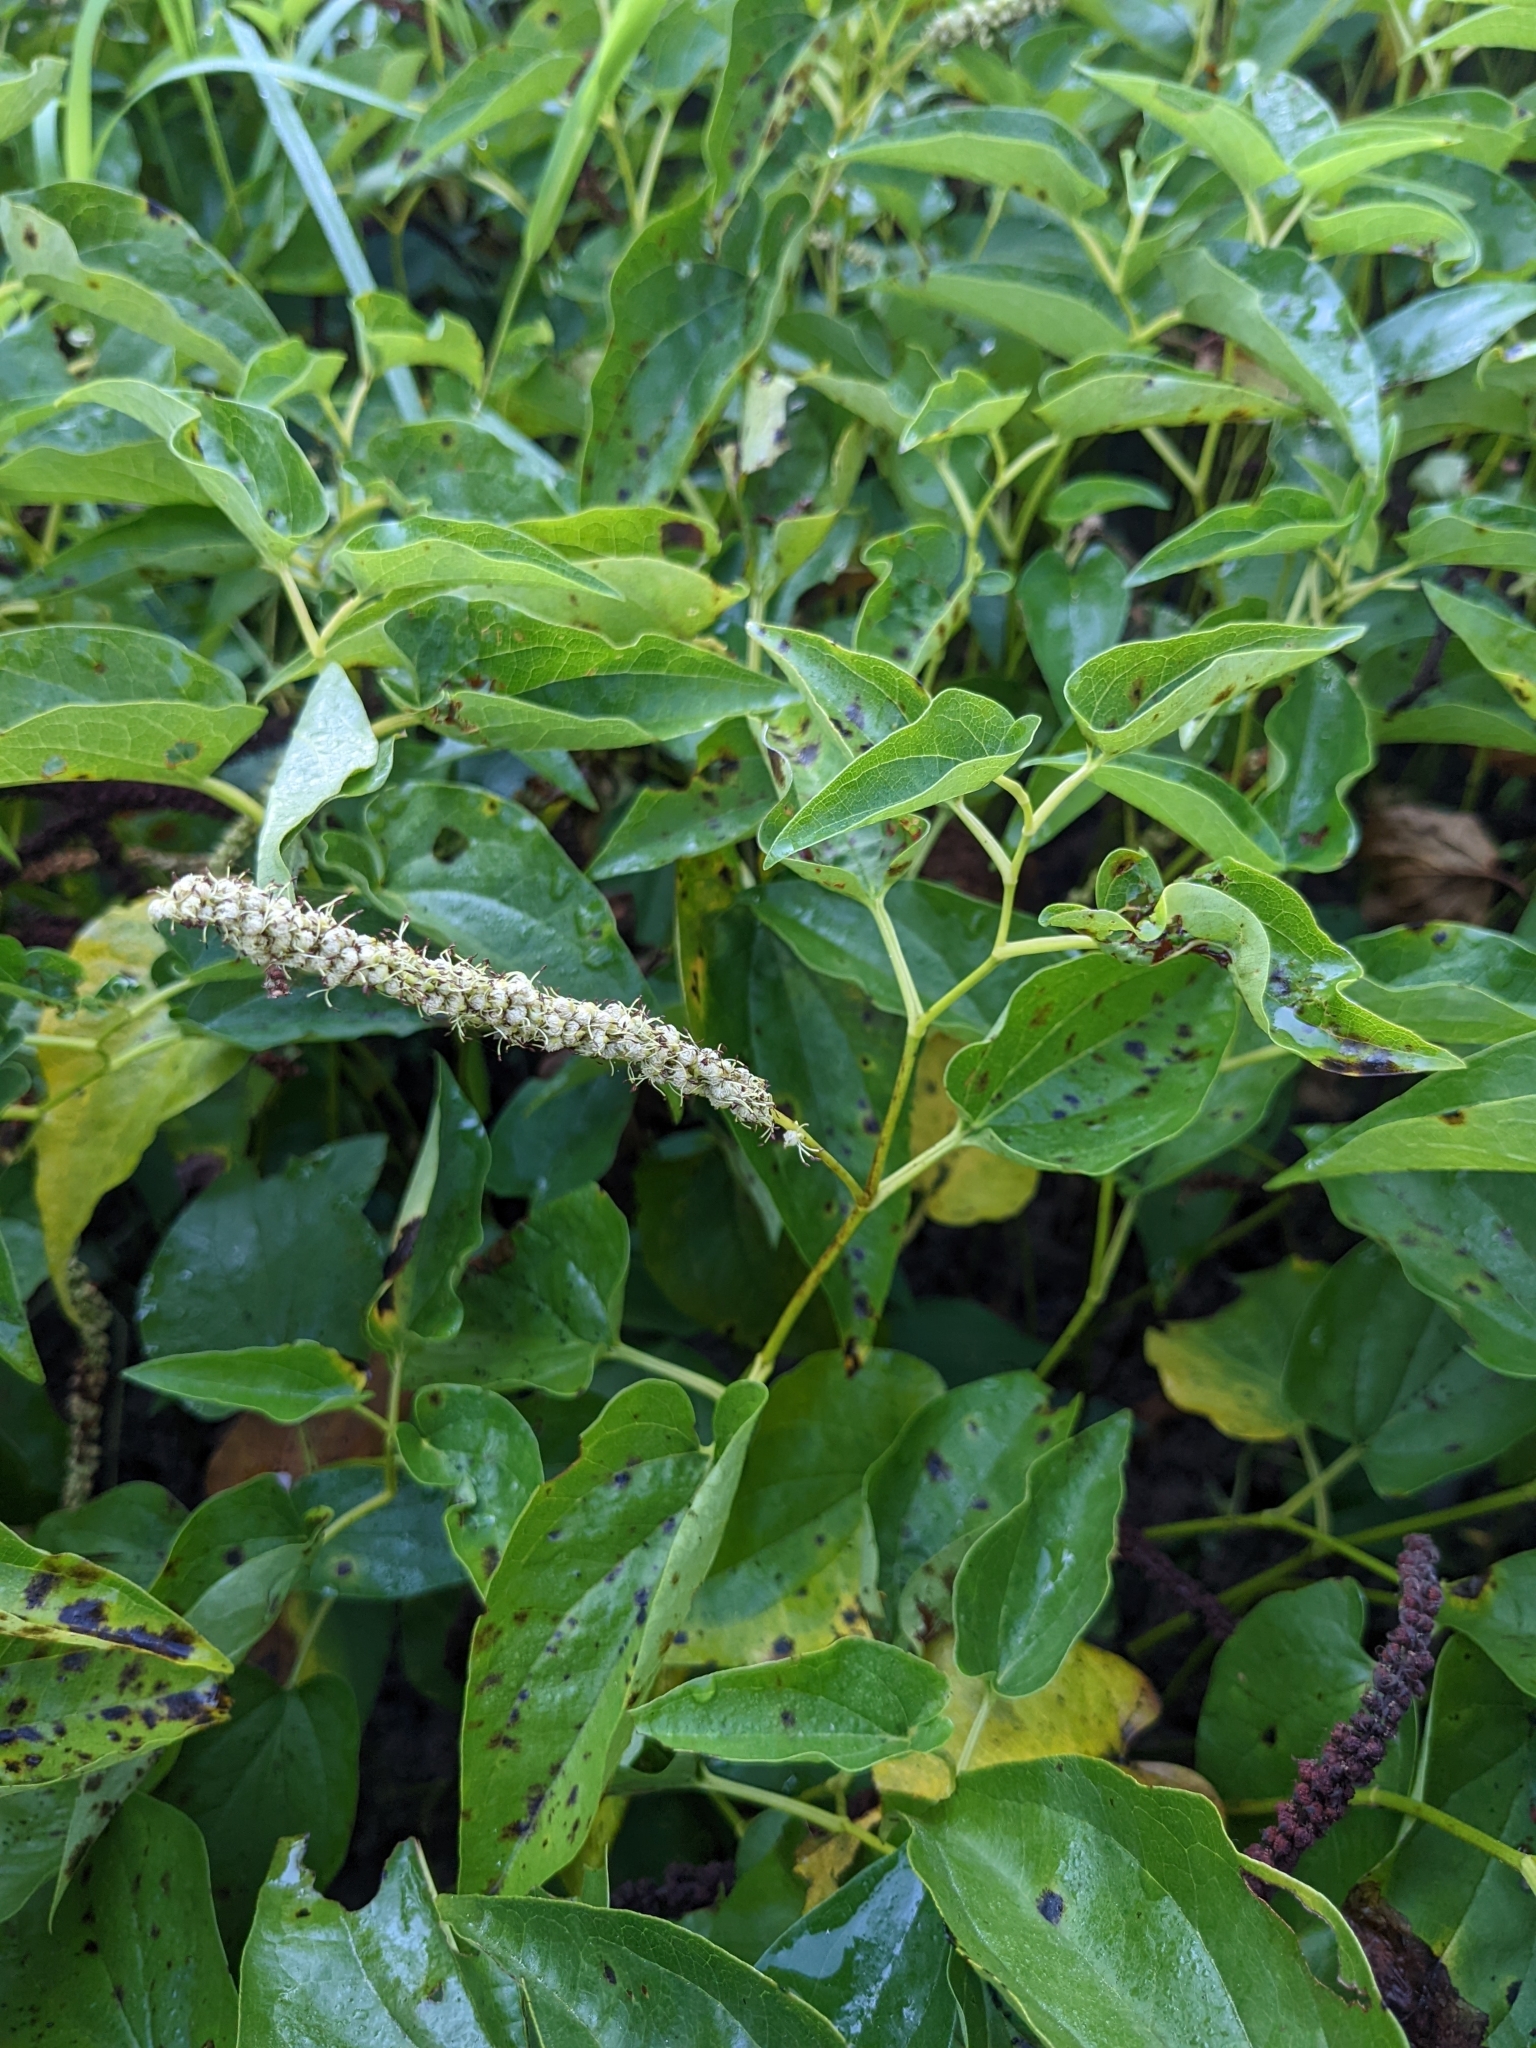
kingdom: Plantae
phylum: Tracheophyta
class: Magnoliopsida
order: Piperales
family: Saururaceae
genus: Saururus
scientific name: Saururus cernuus
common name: Lizard's-tail
